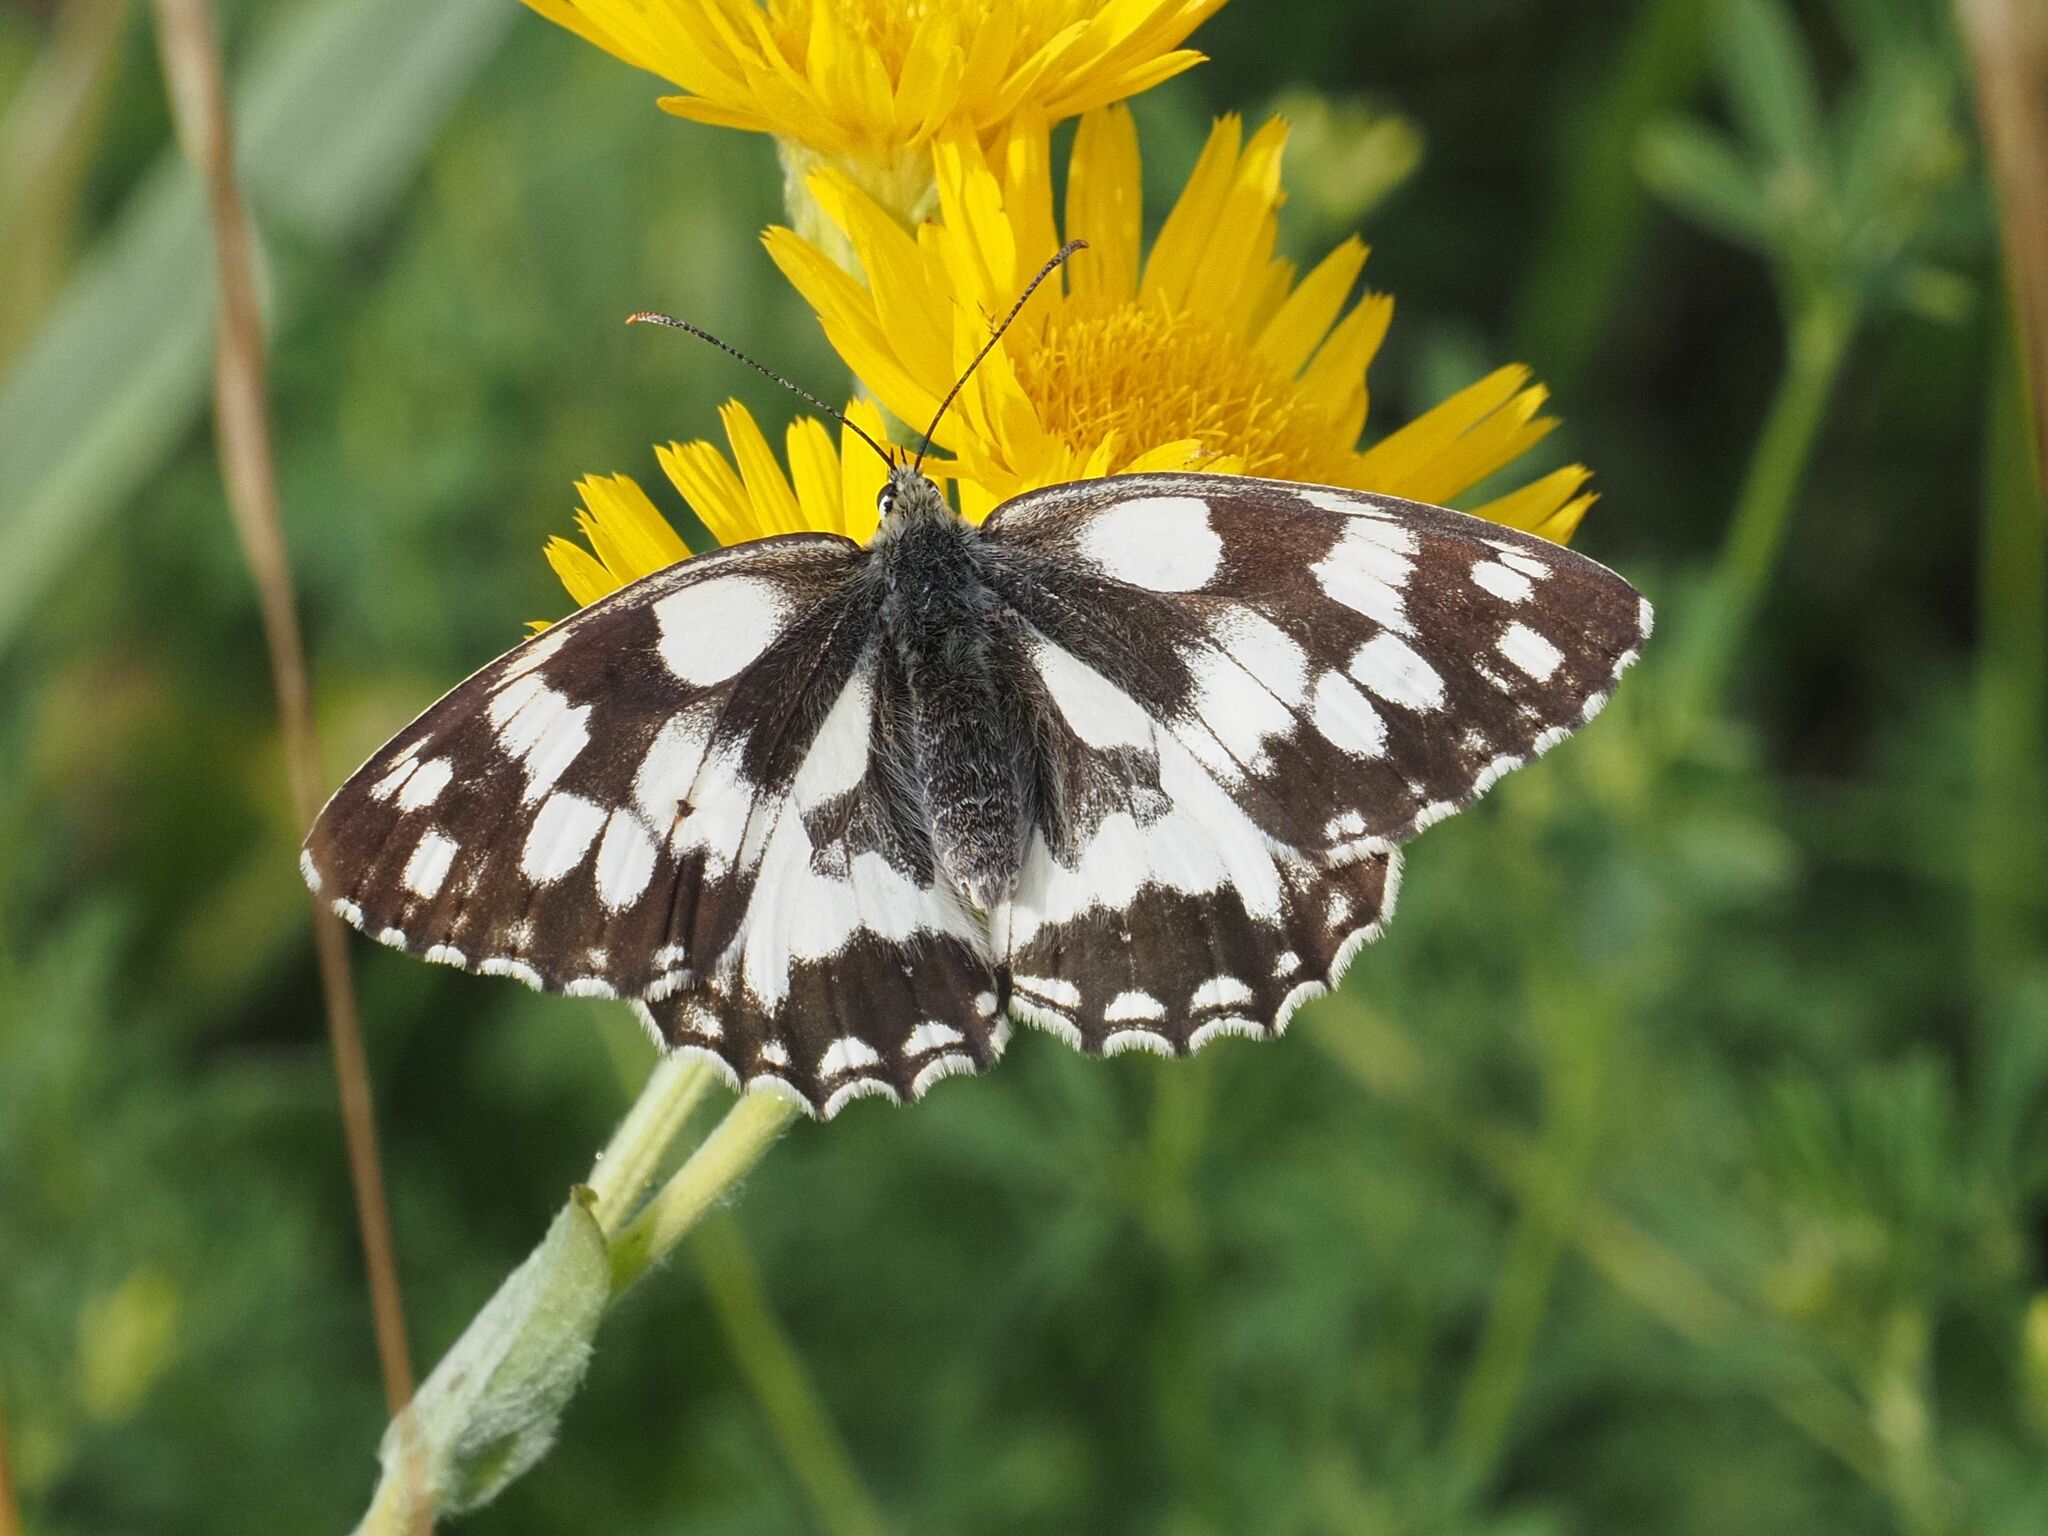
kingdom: Animalia
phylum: Arthropoda
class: Insecta
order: Lepidoptera
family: Nymphalidae
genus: Melanargia
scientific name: Melanargia galathea
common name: Marbled white
